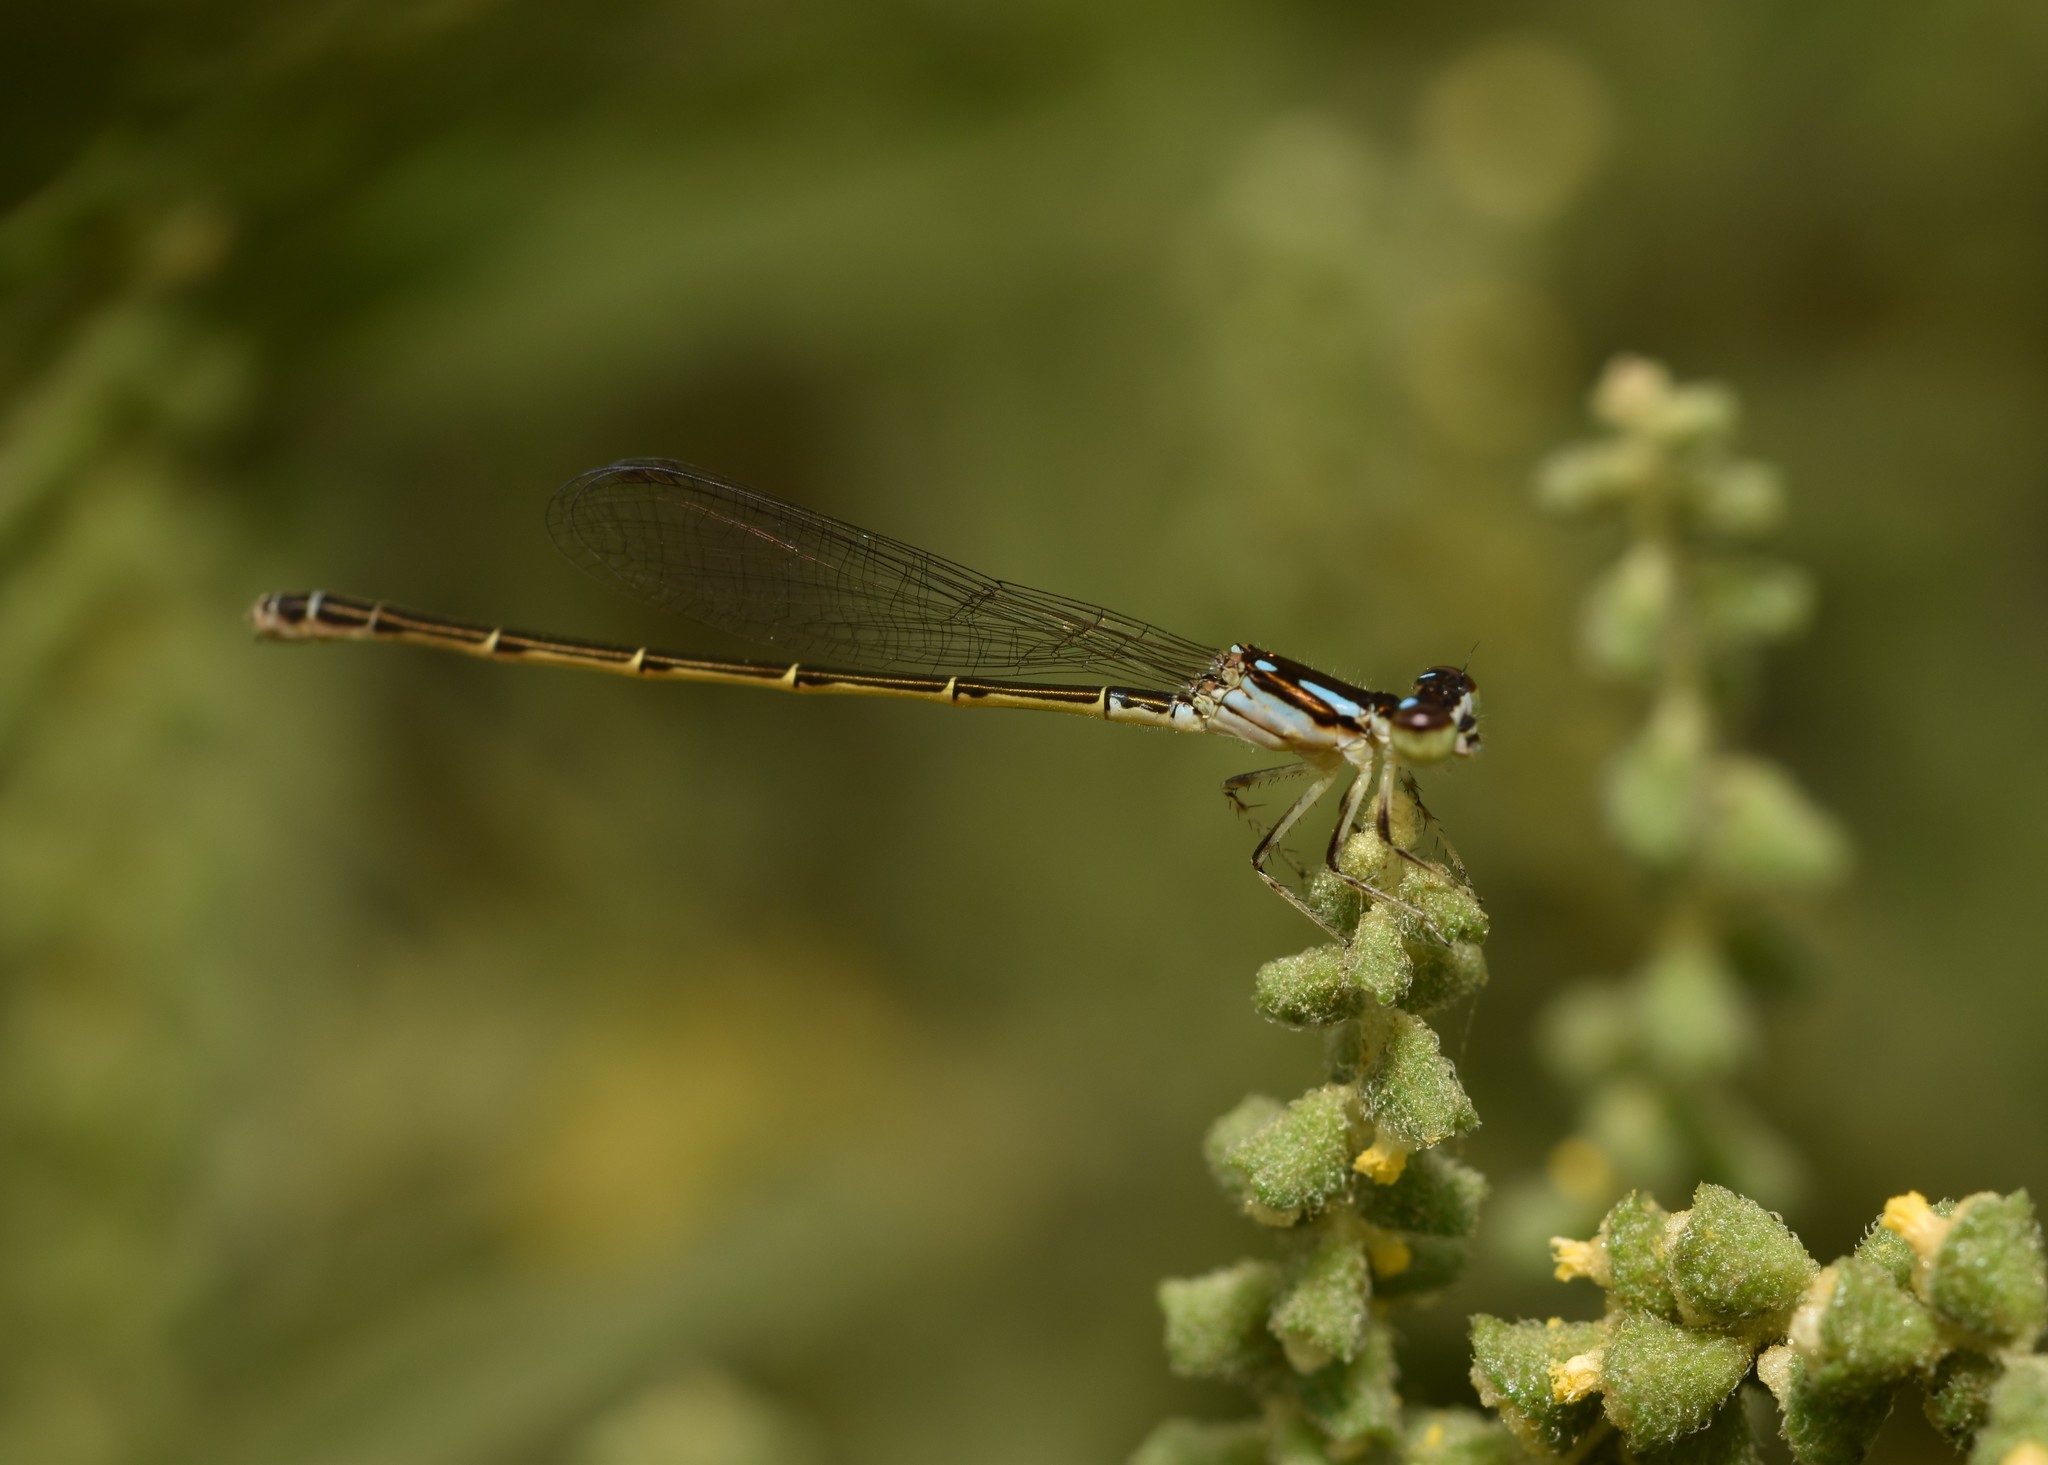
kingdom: Animalia
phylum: Arthropoda
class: Insecta
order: Odonata
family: Coenagrionidae
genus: Ischnura
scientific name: Ischnura posita
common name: Fragile forktail
